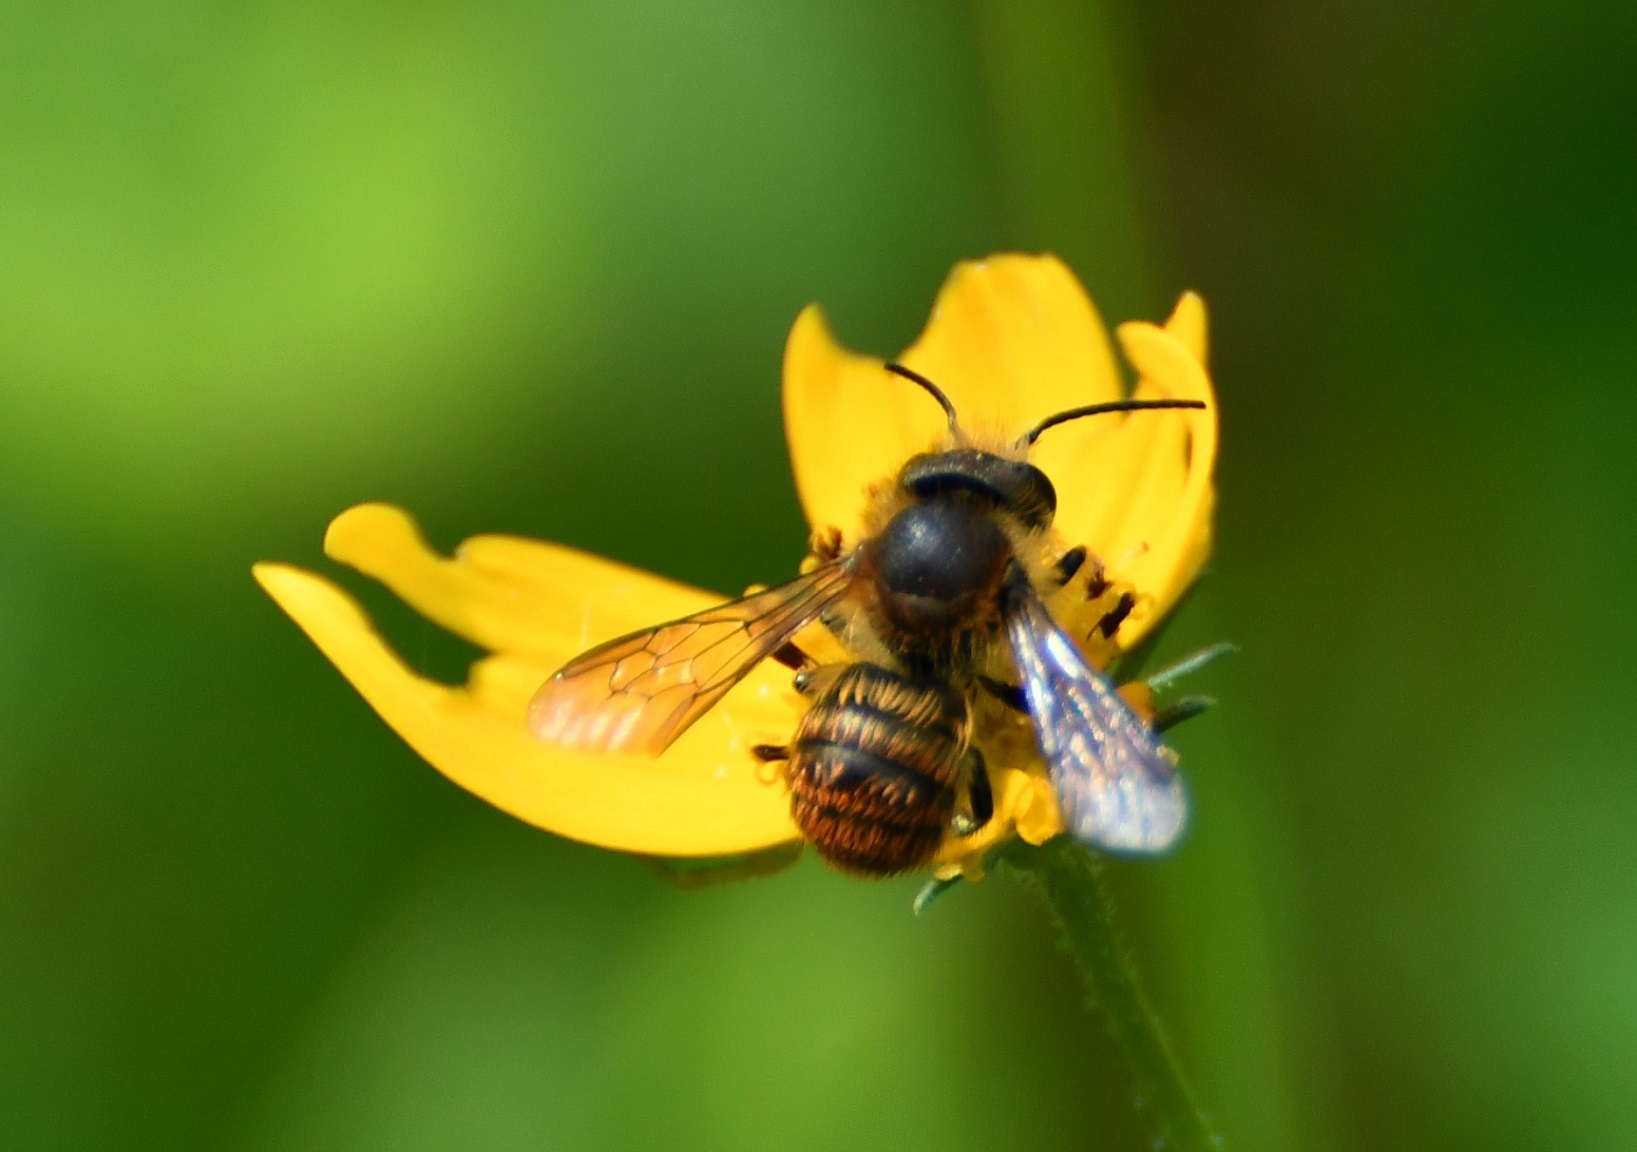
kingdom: Animalia
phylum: Arthropoda
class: Insecta
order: Hymenoptera
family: Megachilidae
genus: Osmia
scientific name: Osmia azteca
